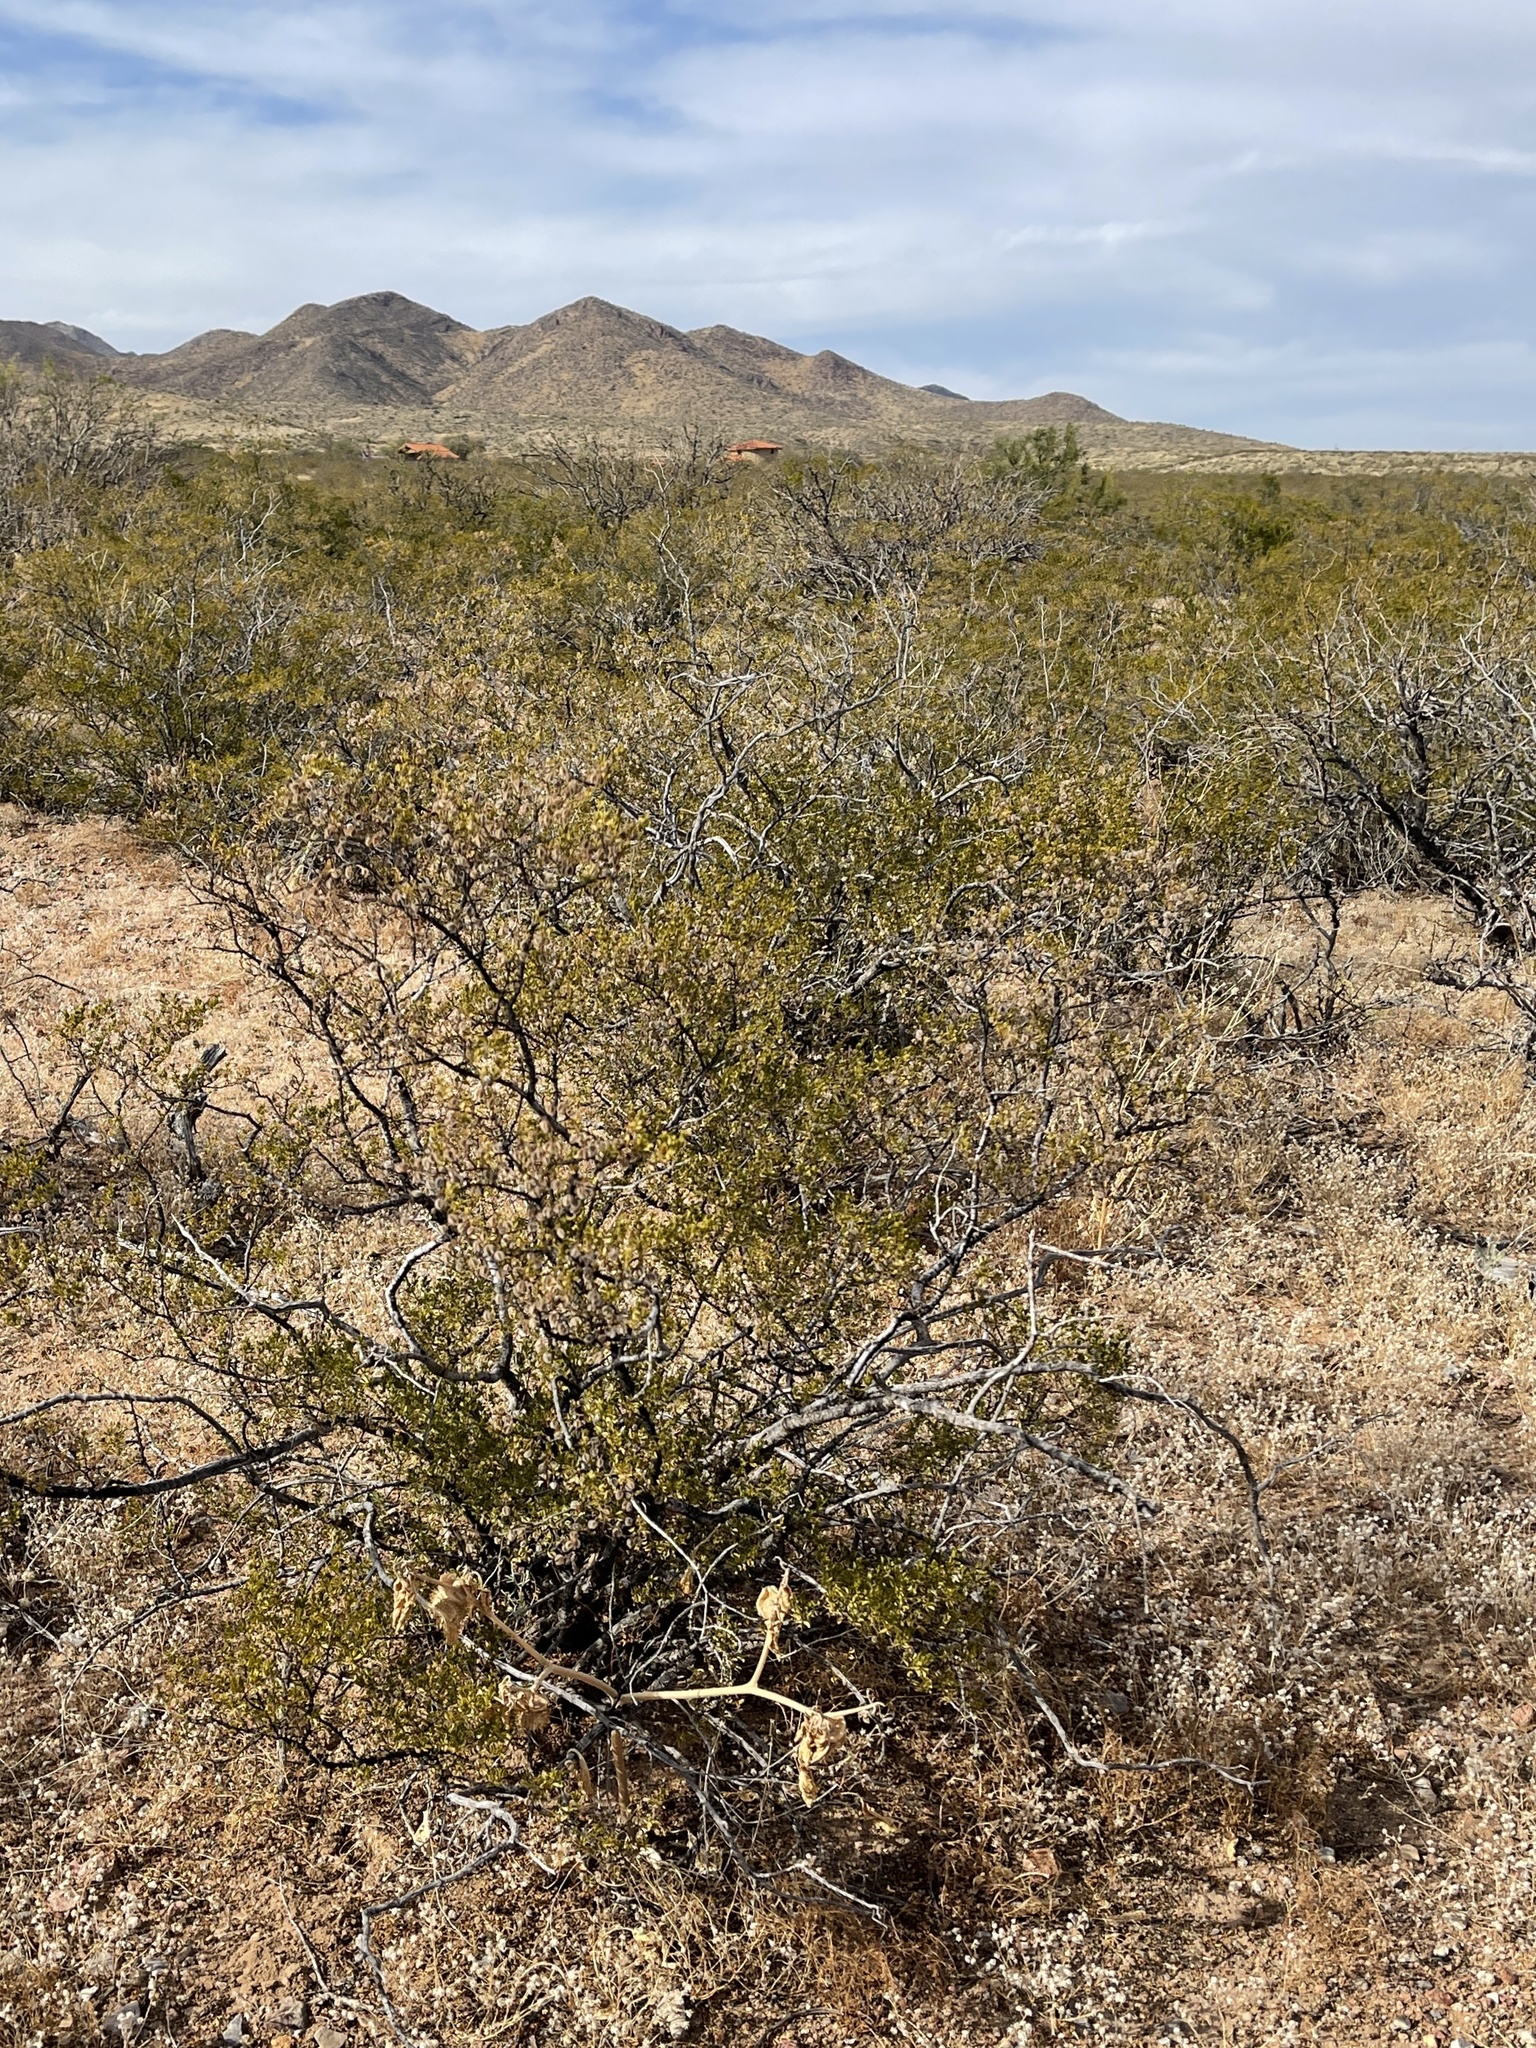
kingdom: Plantae
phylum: Tracheophyta
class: Magnoliopsida
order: Zygophyllales
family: Zygophyllaceae
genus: Larrea
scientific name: Larrea tridentata
